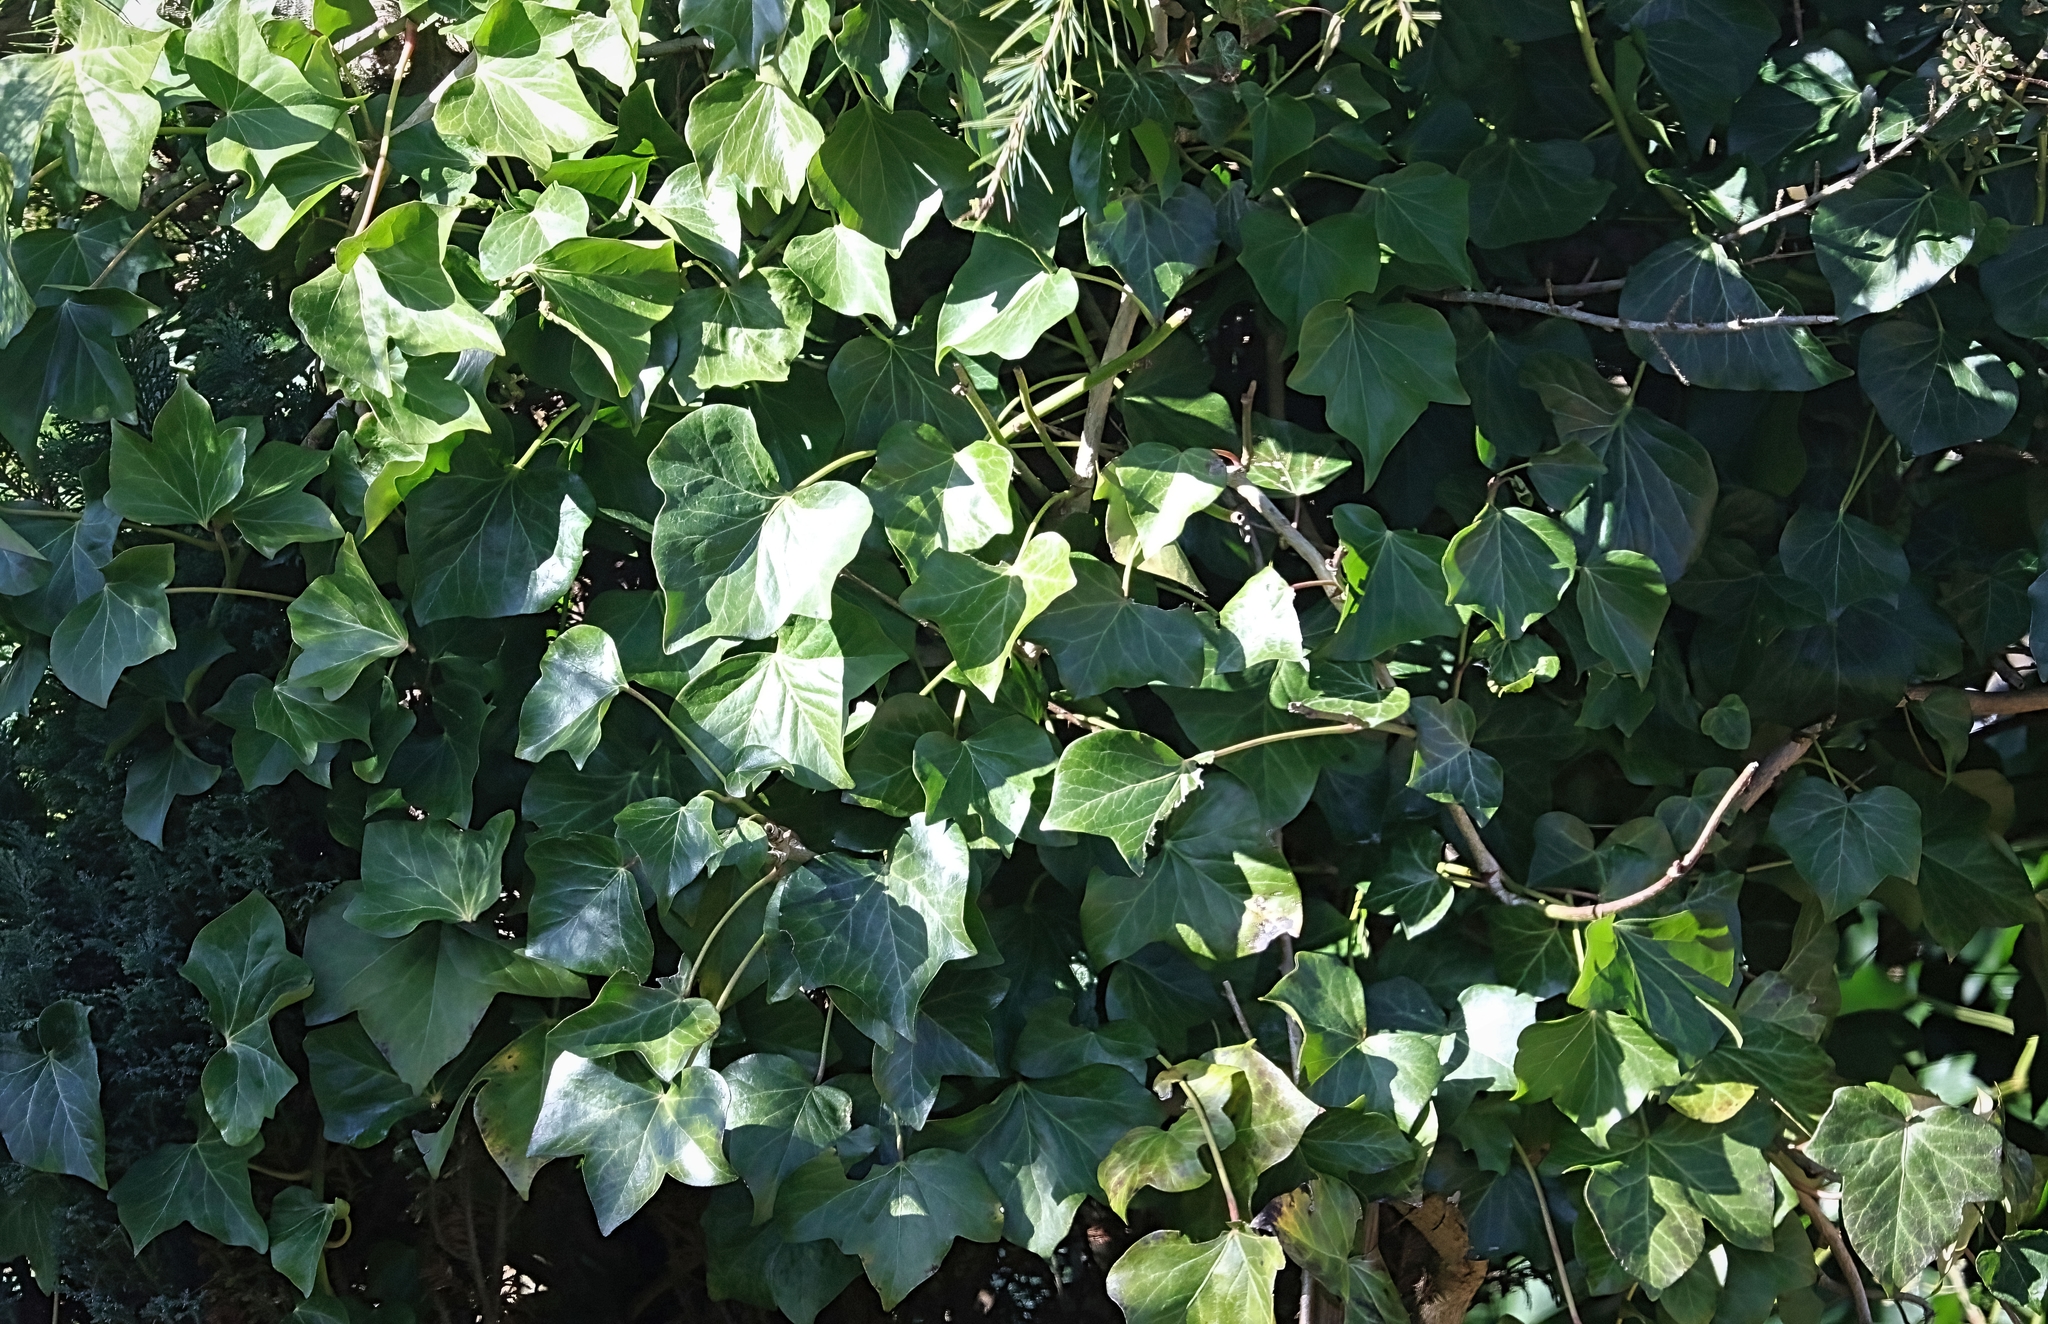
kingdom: Plantae
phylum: Tracheophyta
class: Magnoliopsida
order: Apiales
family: Araliaceae
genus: Hedera
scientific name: Hedera helix
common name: Ivy
